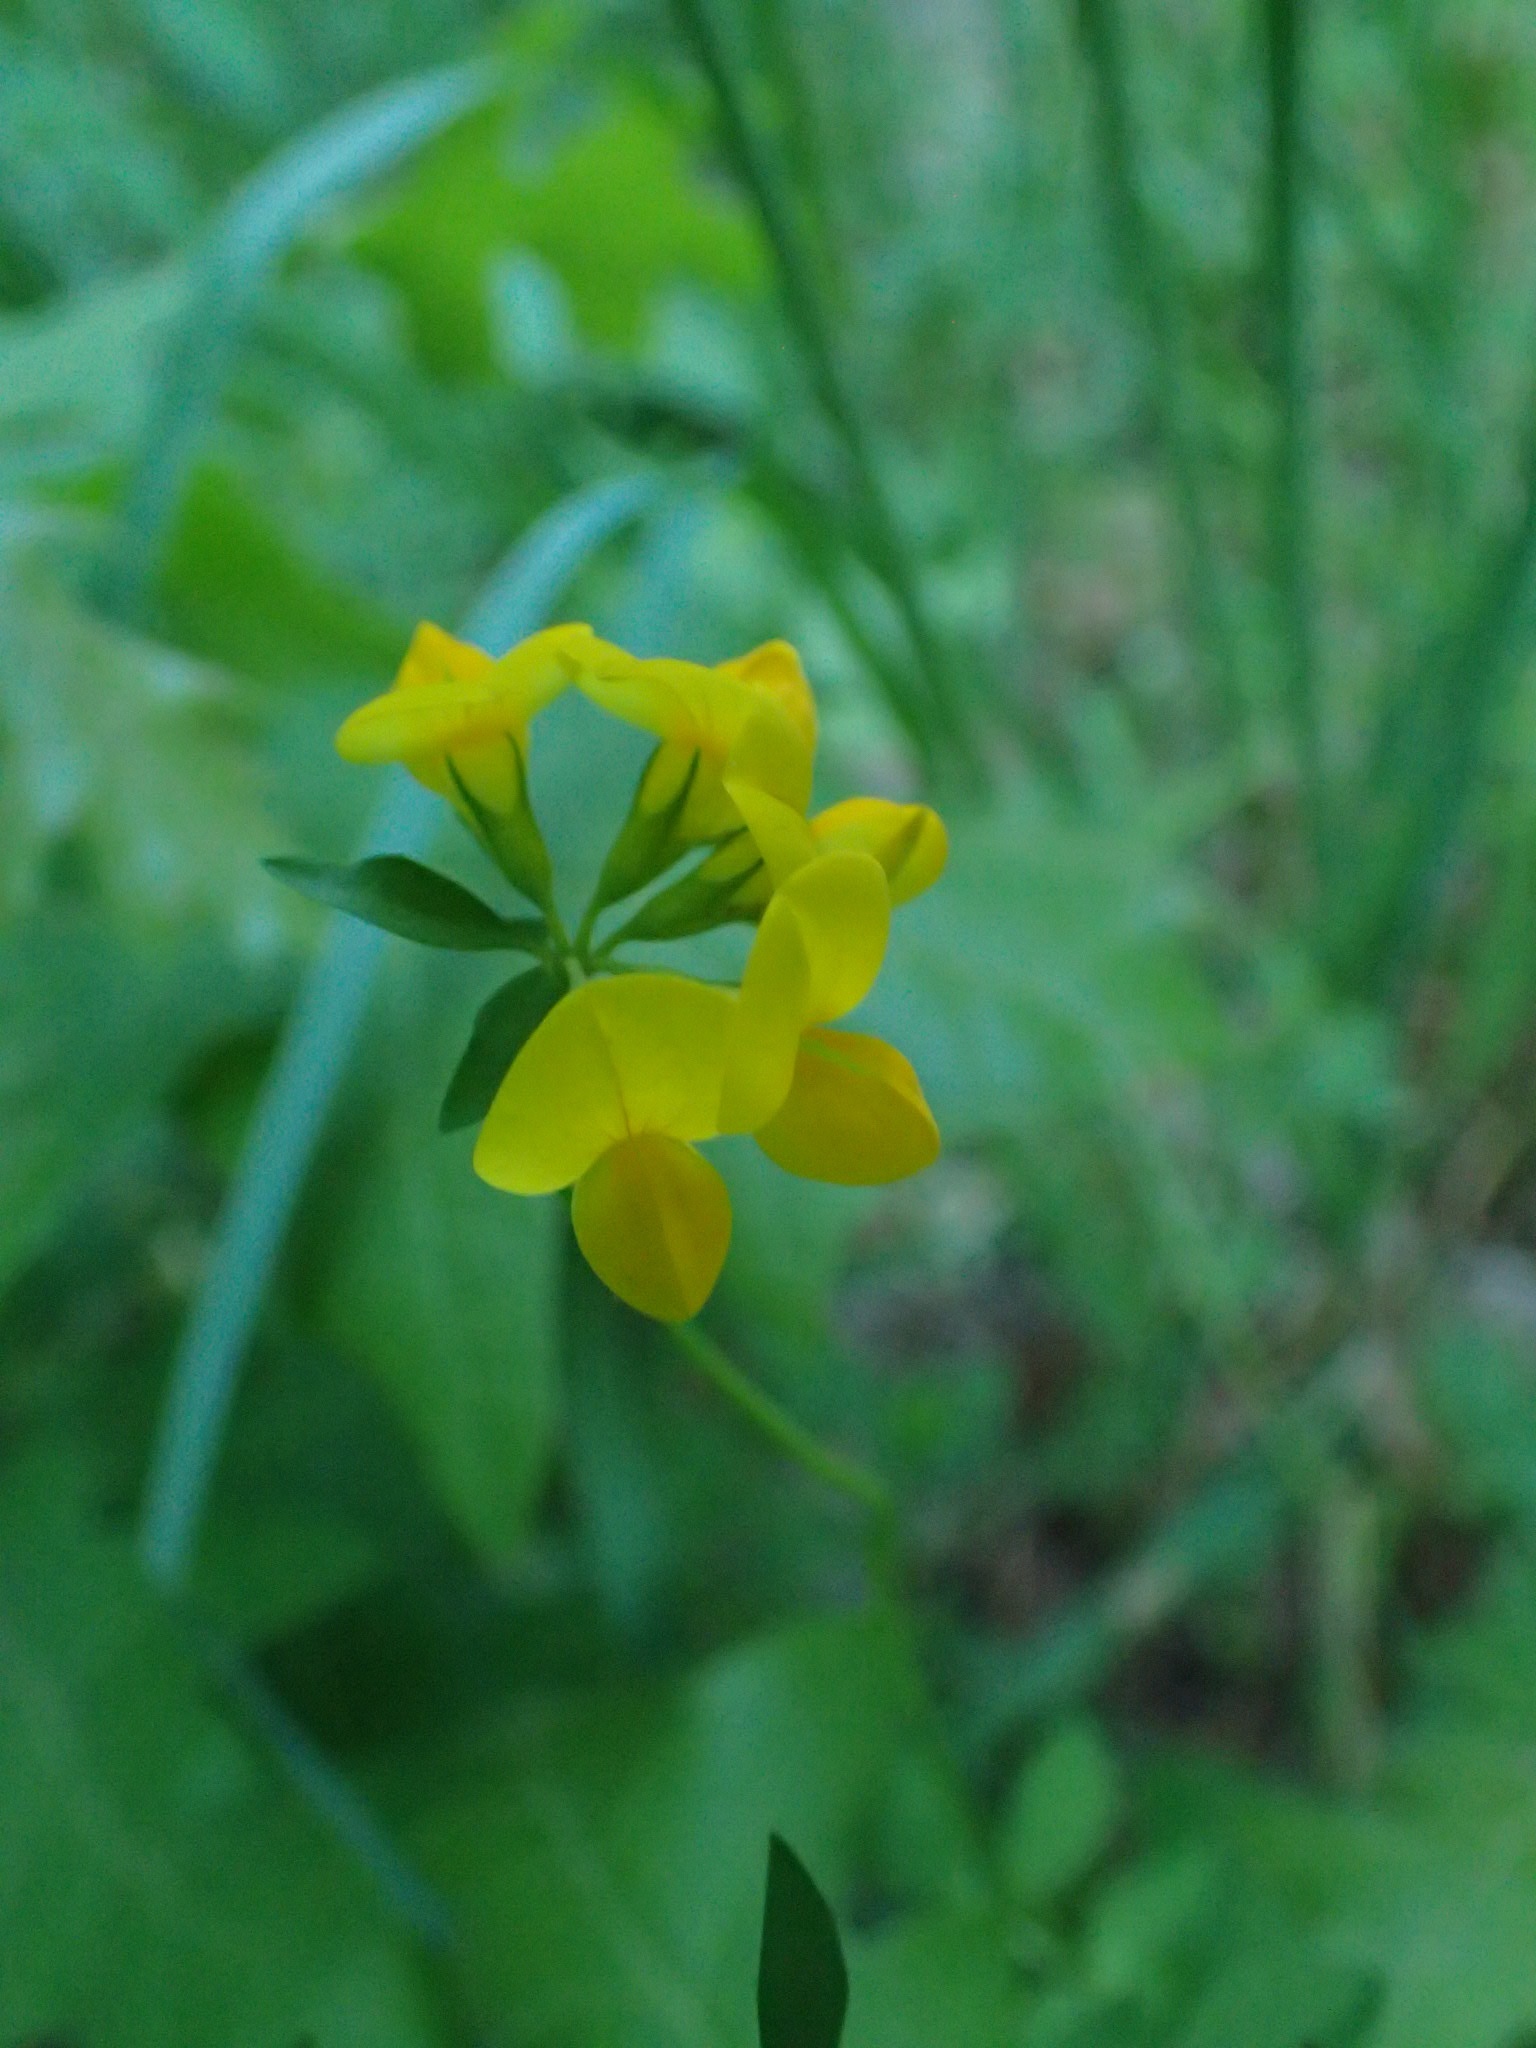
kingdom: Plantae
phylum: Tracheophyta
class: Magnoliopsida
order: Fabales
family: Fabaceae
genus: Lotus
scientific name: Lotus corniculatus
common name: Common bird's-foot-trefoil
